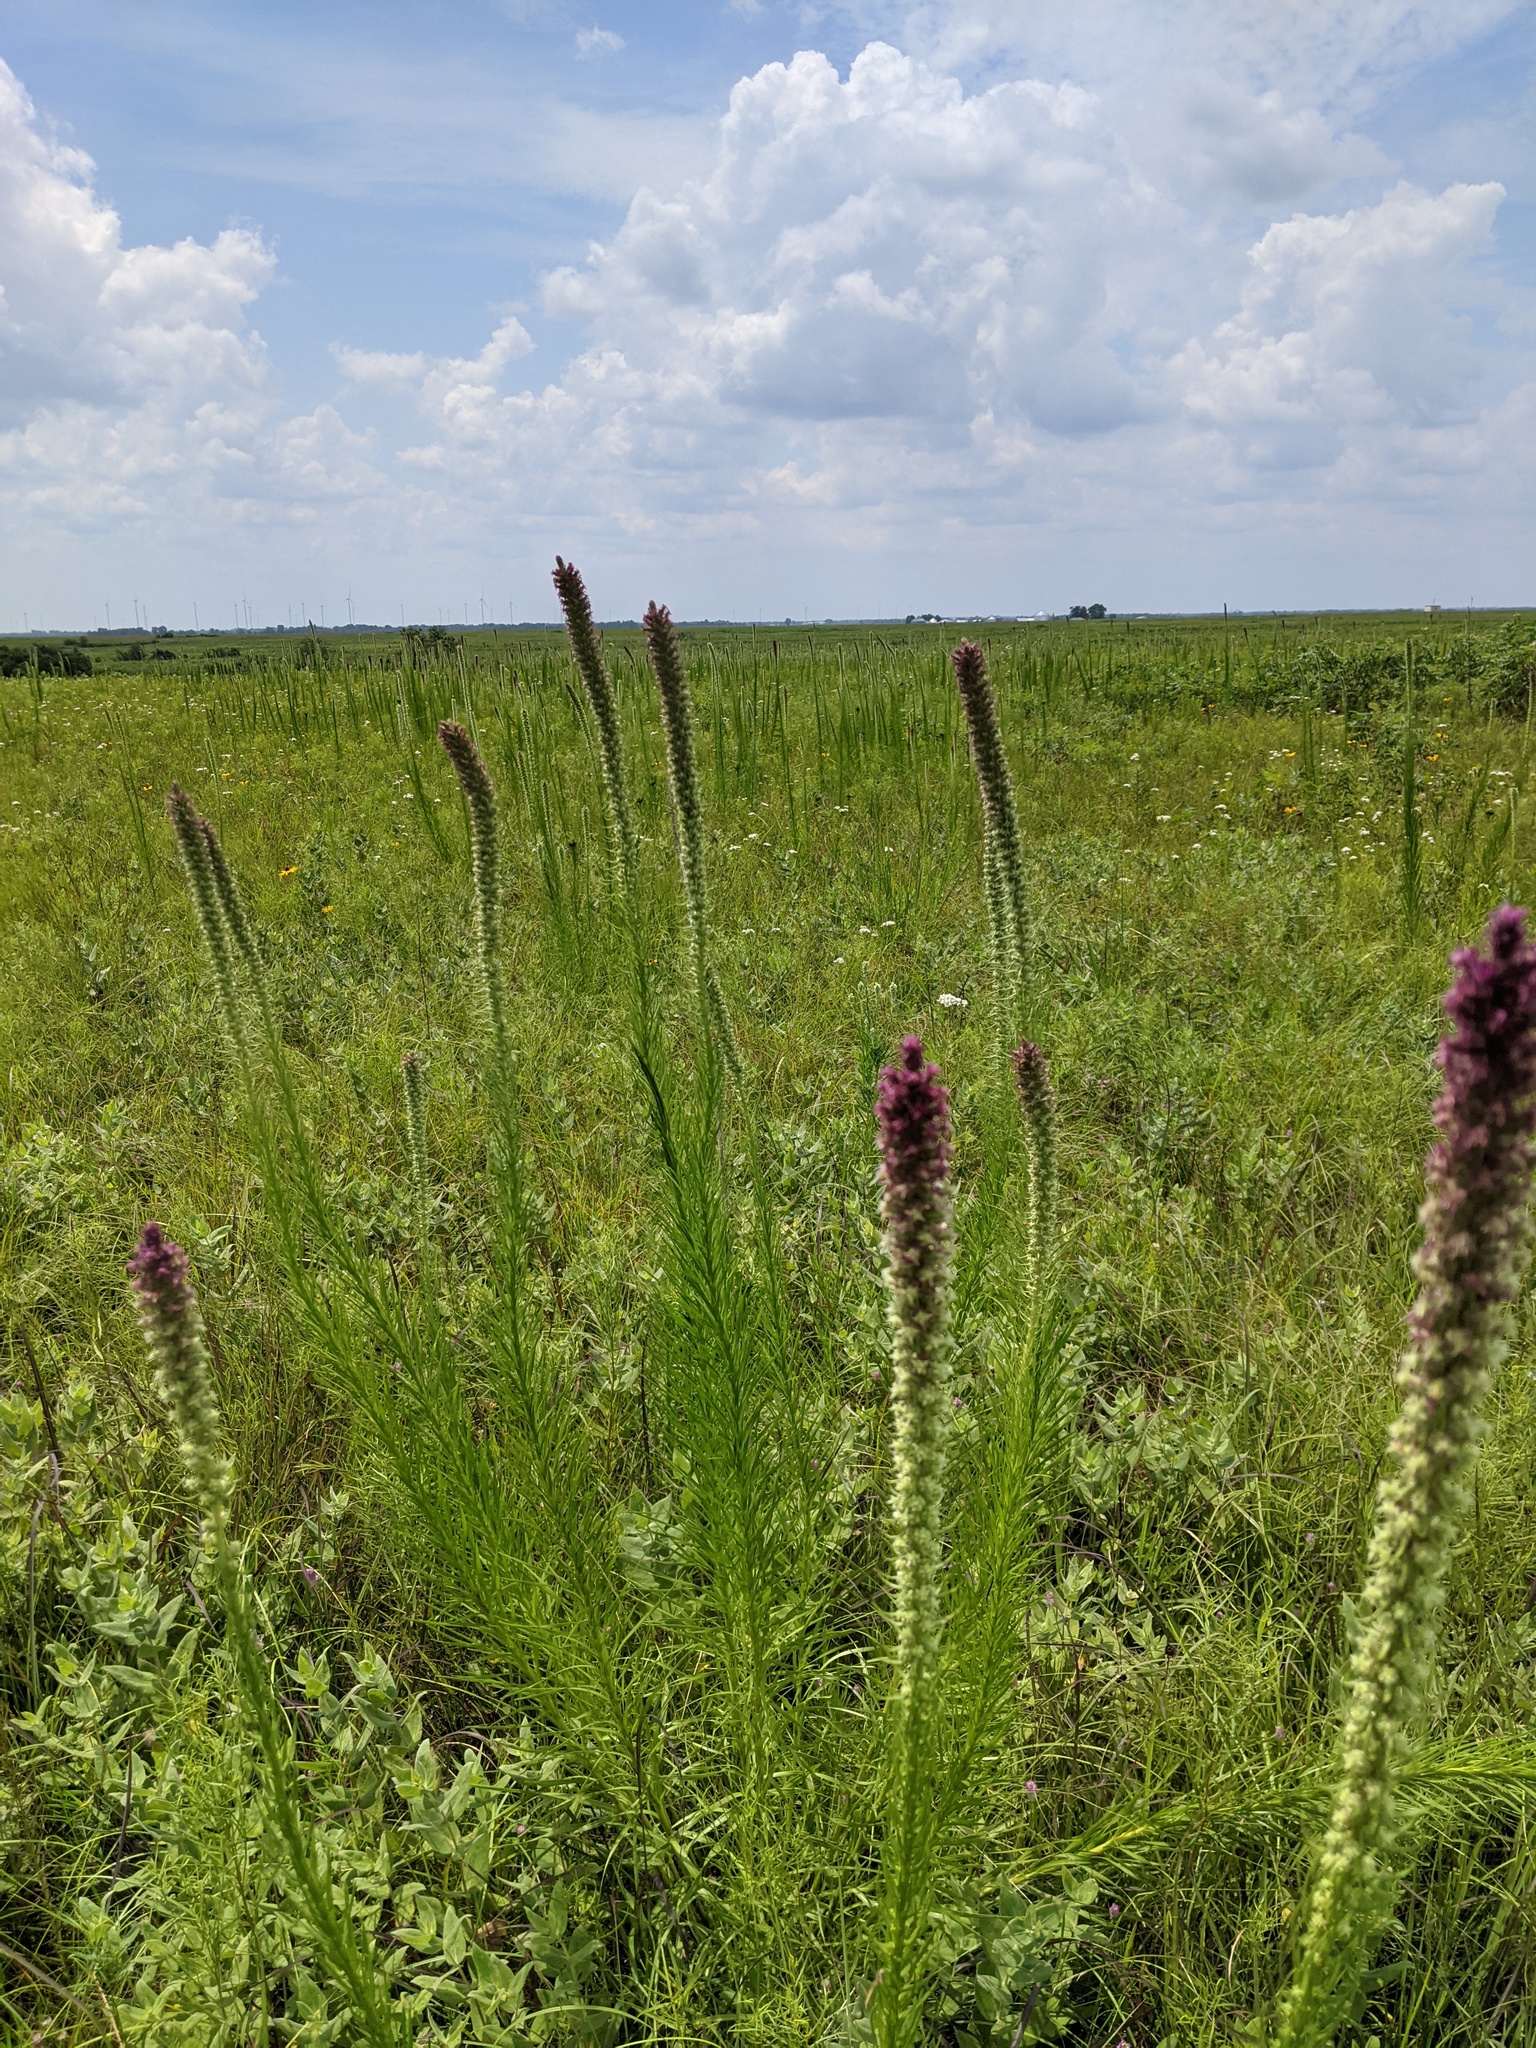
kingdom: Plantae
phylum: Tracheophyta
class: Magnoliopsida
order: Asterales
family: Asteraceae
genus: Liatris
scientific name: Liatris pycnostachya
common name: Cattail gayfeather
